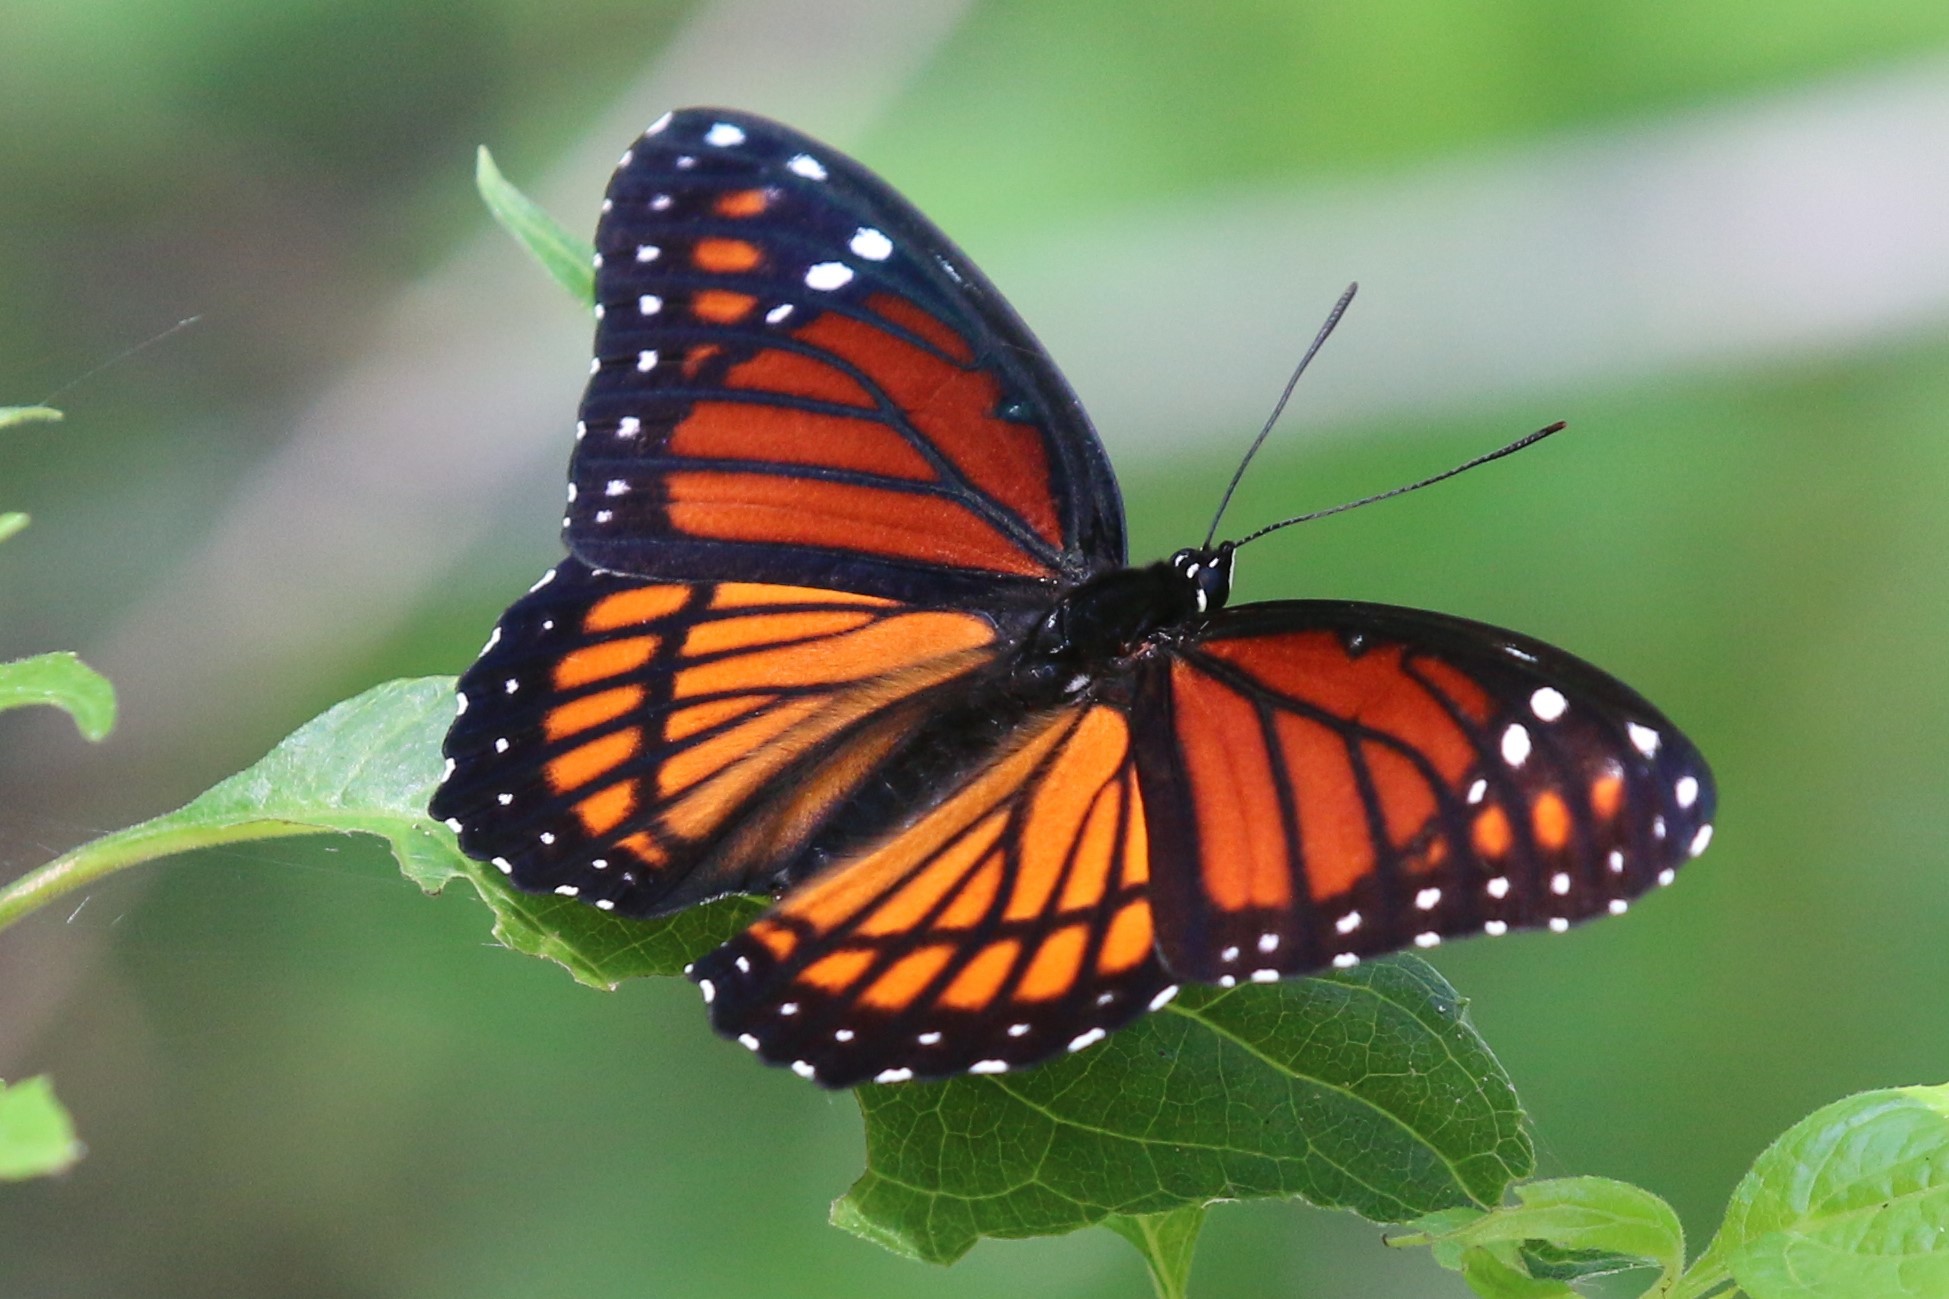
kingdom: Animalia
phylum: Arthropoda
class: Insecta
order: Lepidoptera
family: Nymphalidae
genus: Limenitis
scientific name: Limenitis archippus
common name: Viceroy
